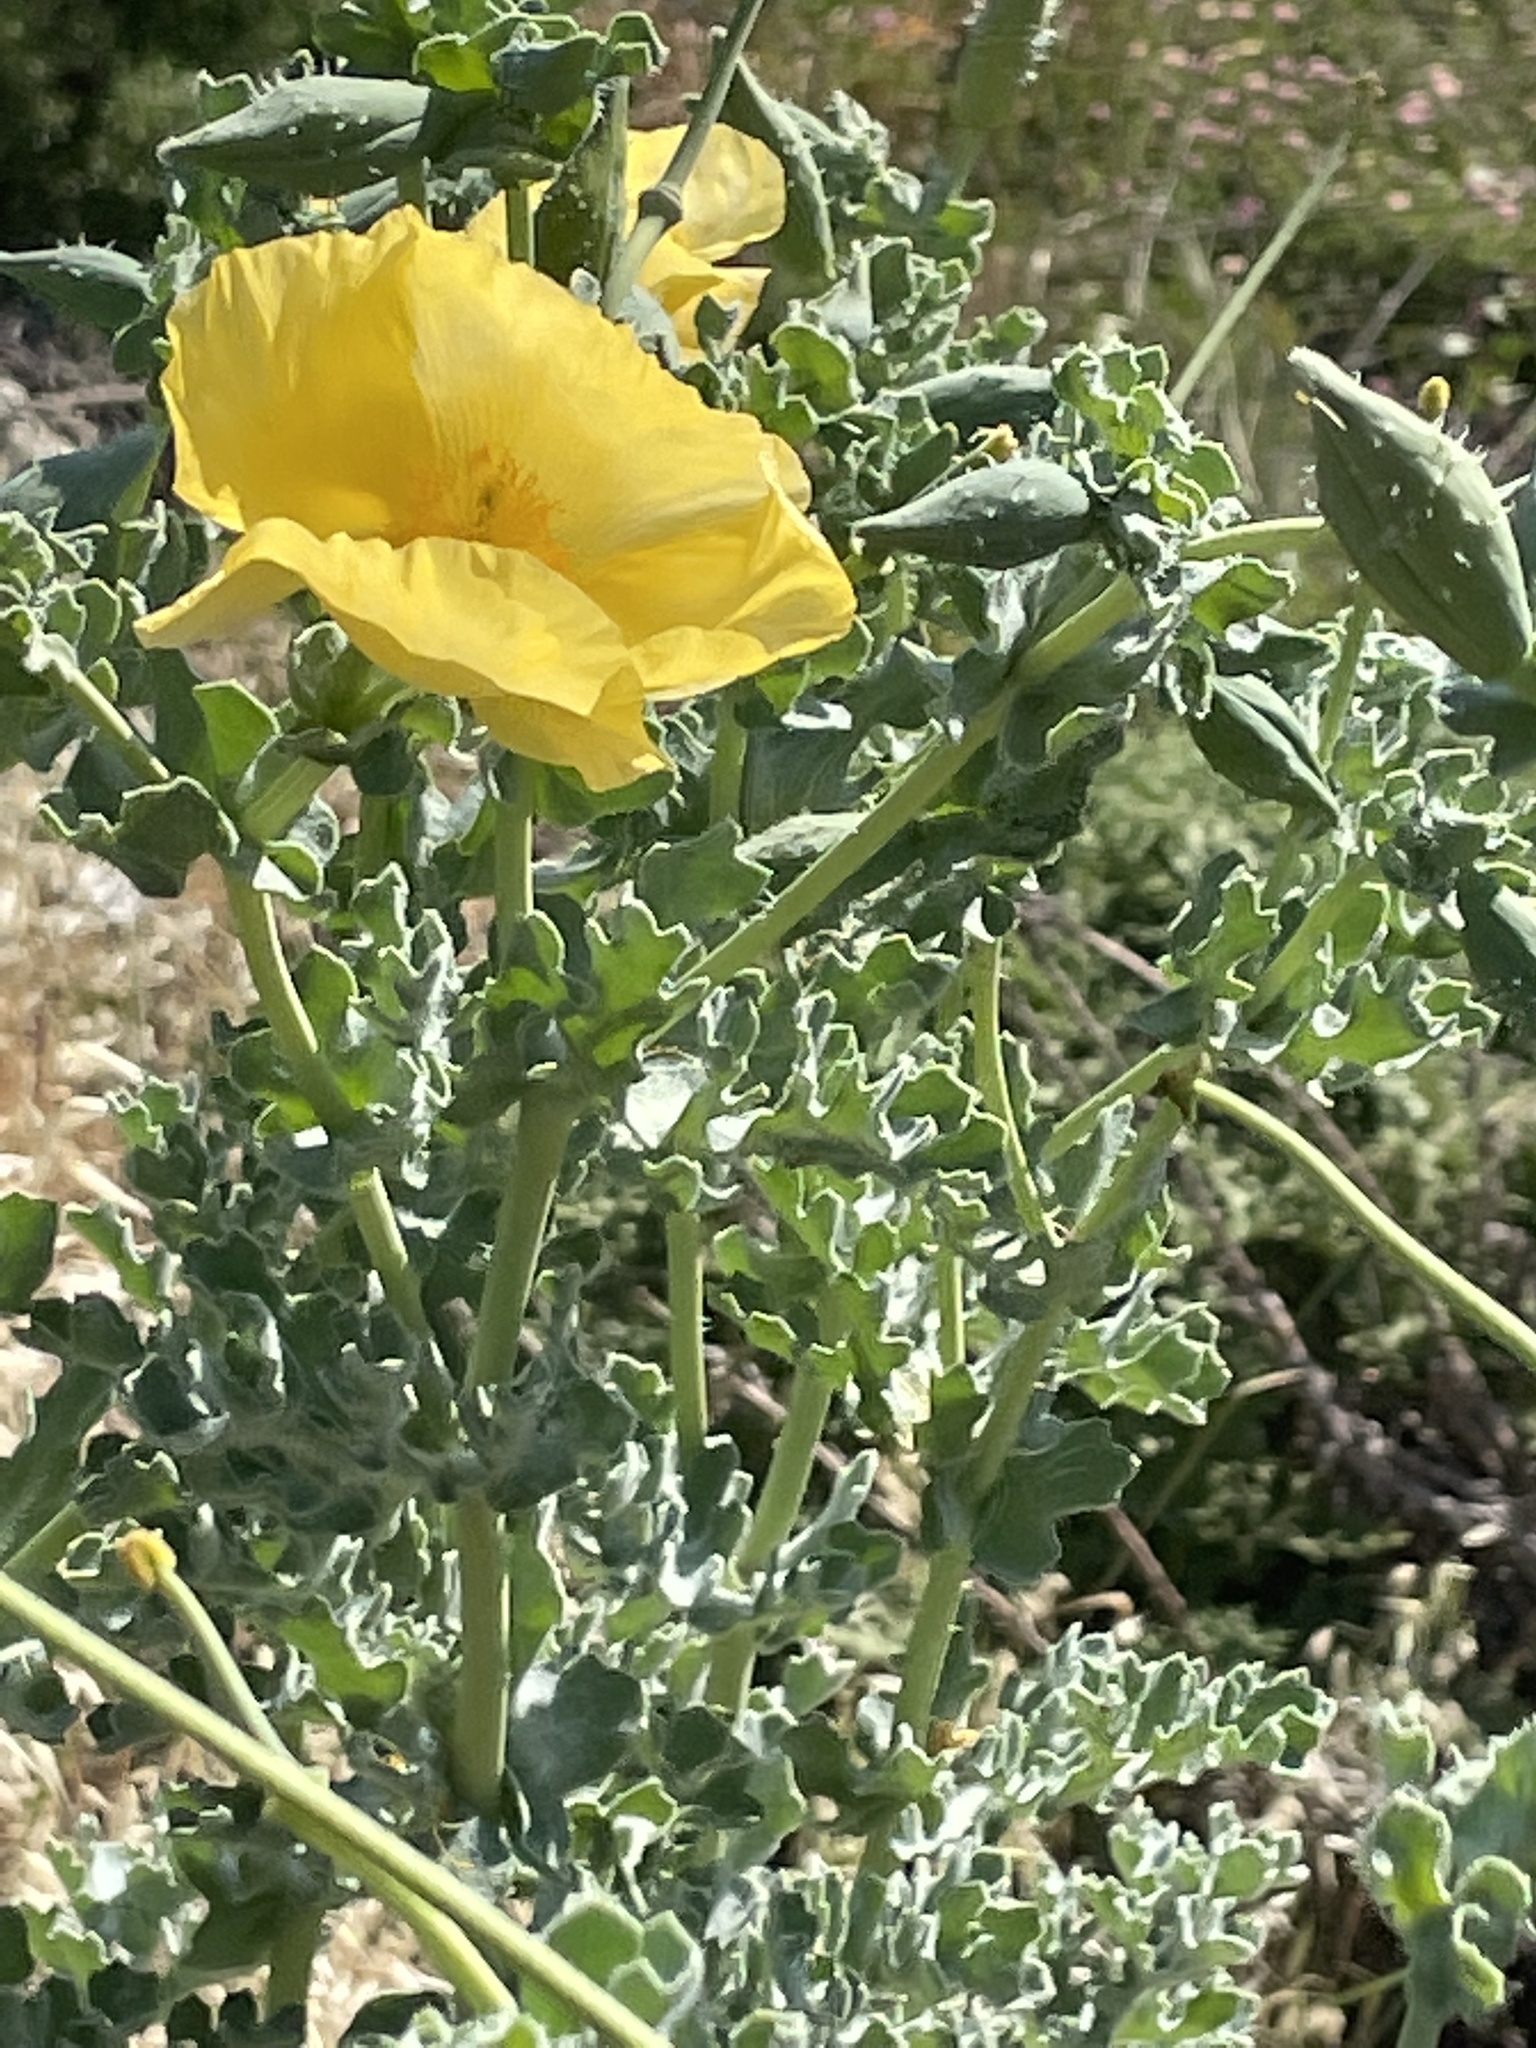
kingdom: Plantae
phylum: Tracheophyta
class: Magnoliopsida
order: Ranunculales
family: Papaveraceae
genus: Glaucium
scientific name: Glaucium flavum
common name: Yellow horned-poppy
